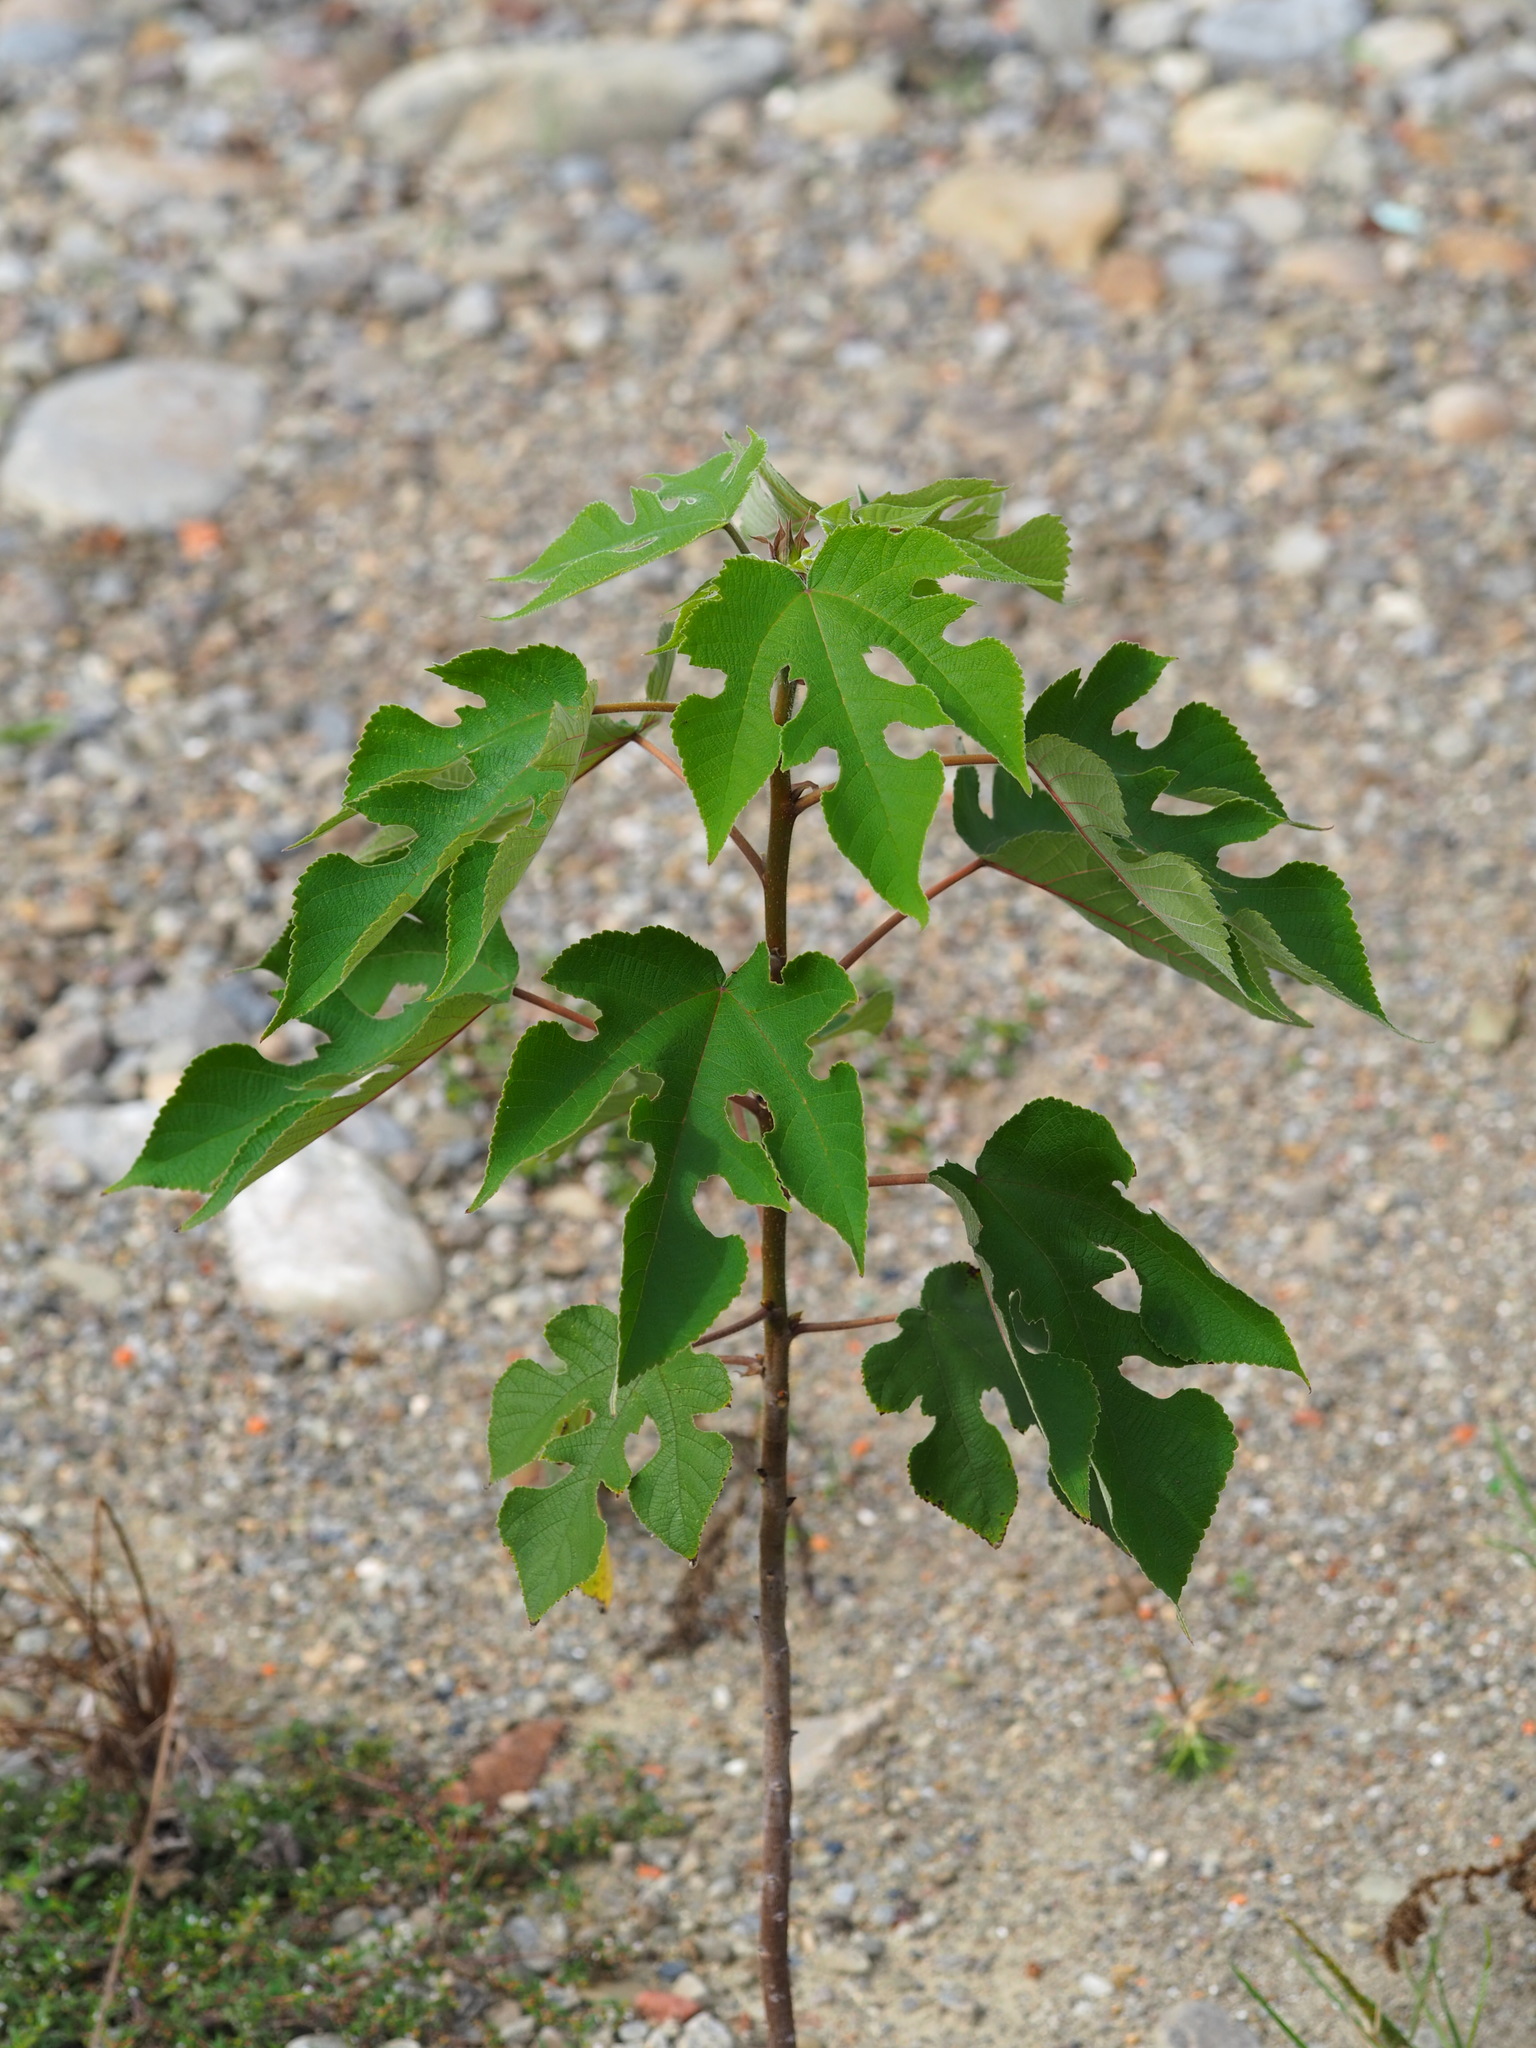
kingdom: Plantae
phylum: Tracheophyta
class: Magnoliopsida
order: Rosales
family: Moraceae
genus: Broussonetia
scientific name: Broussonetia papyrifera
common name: Paper mulberry
